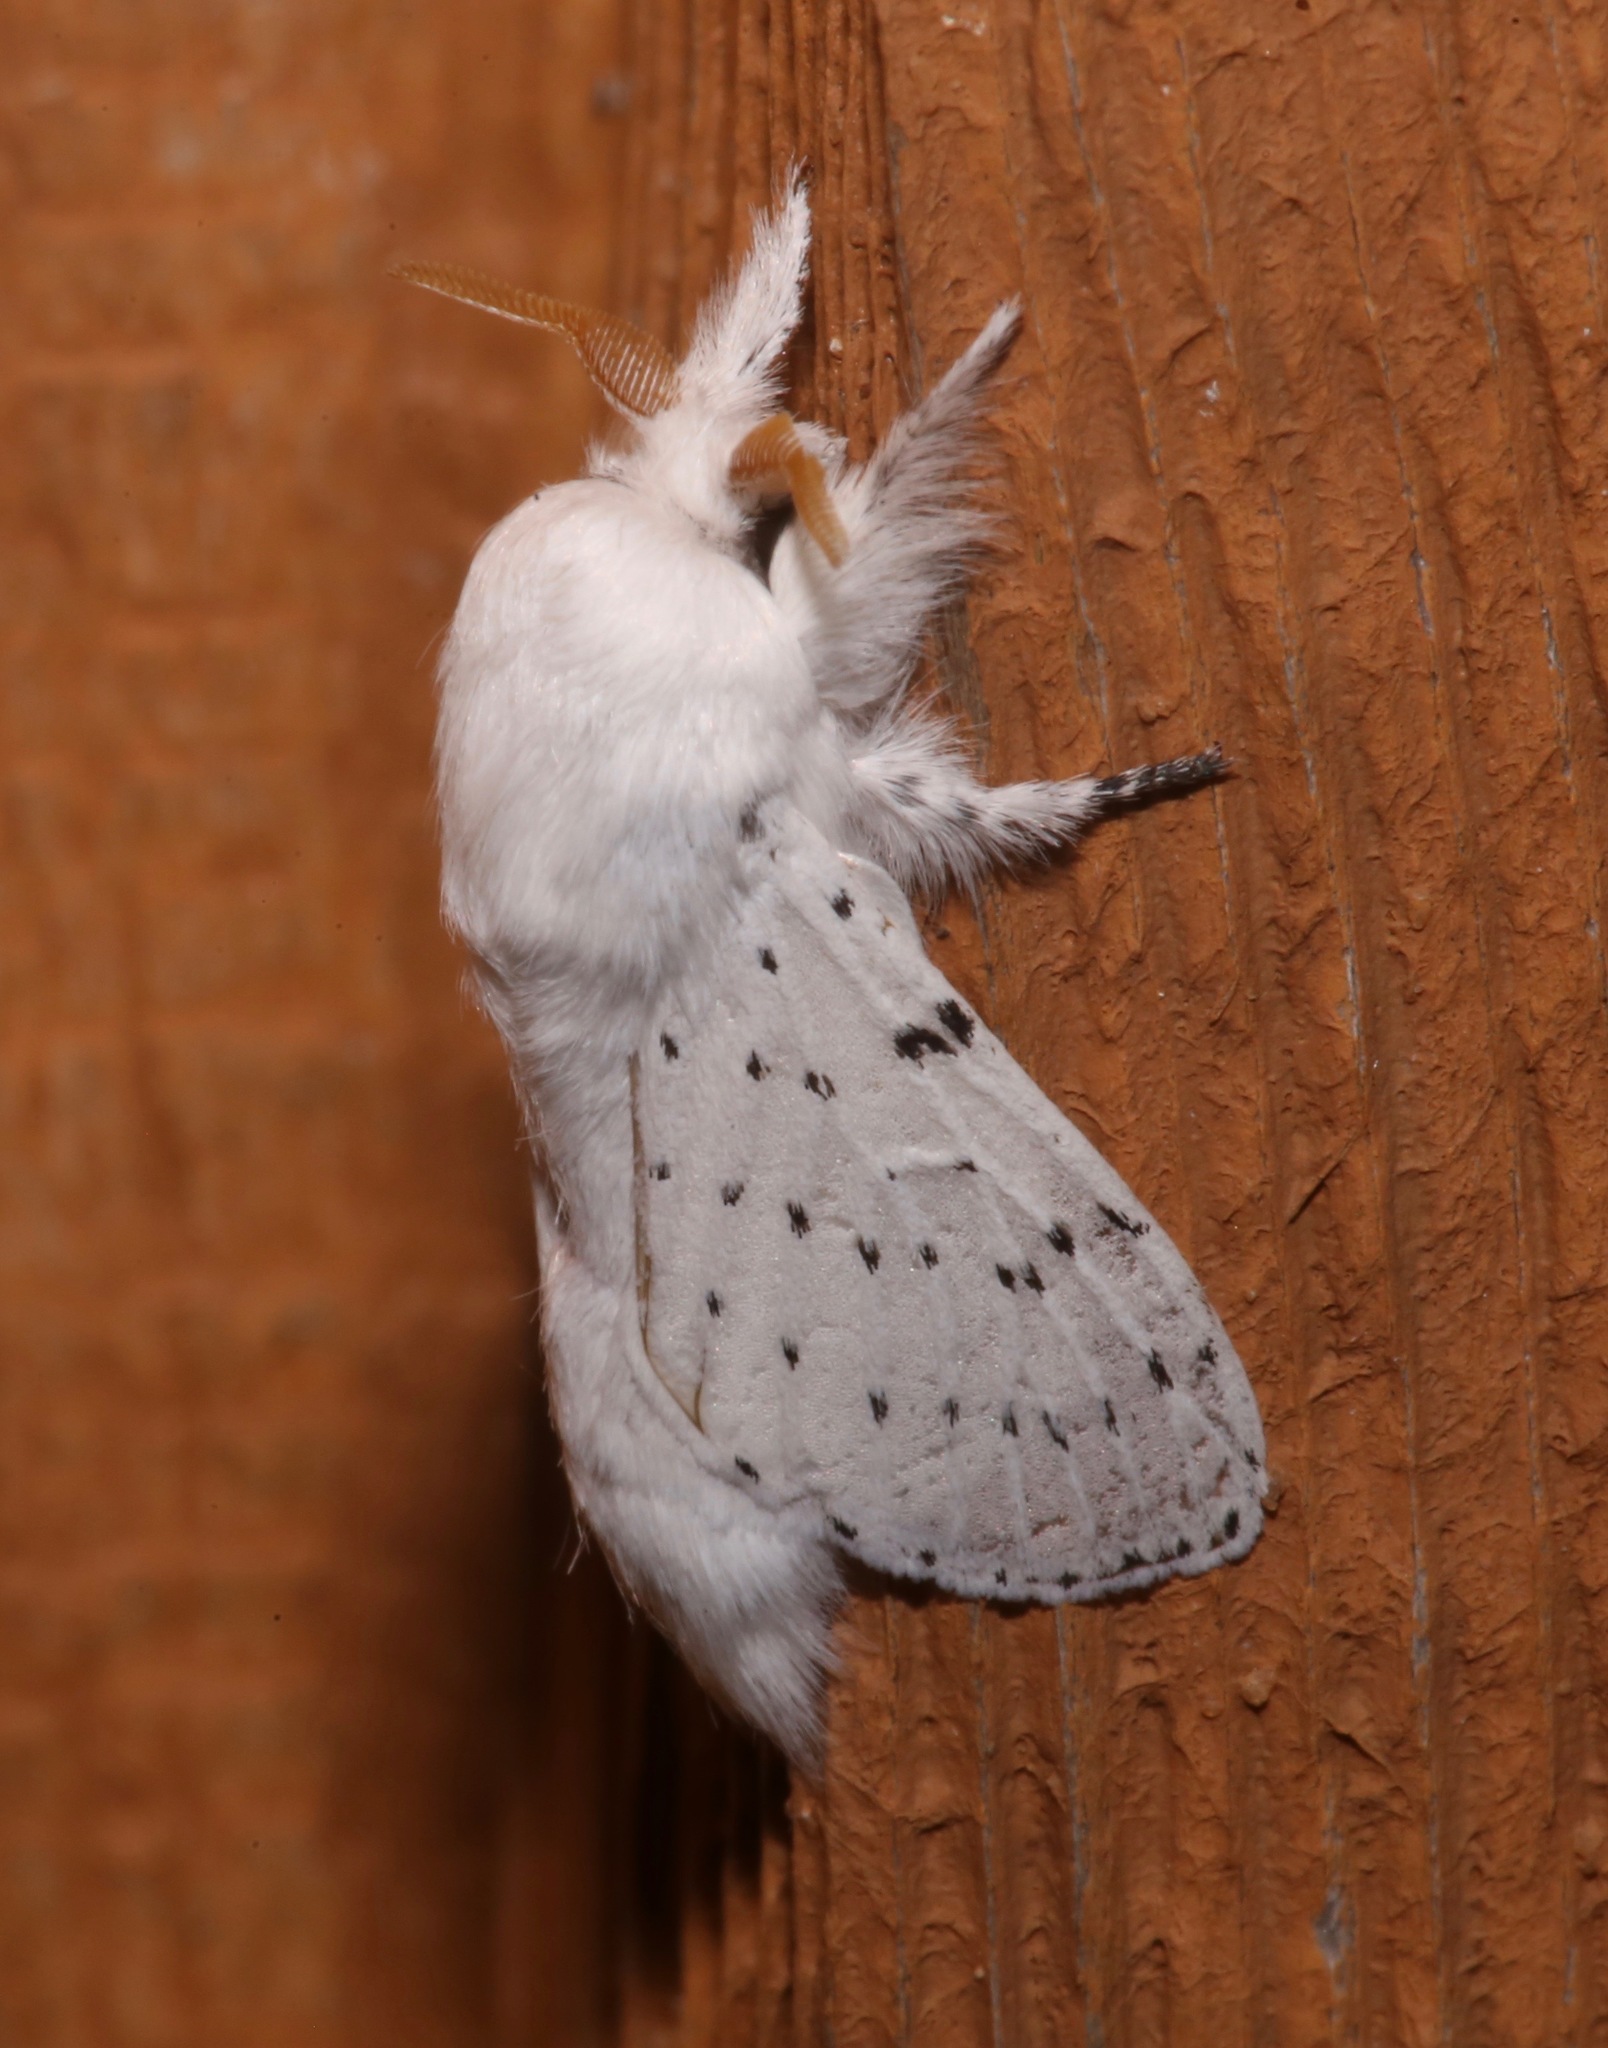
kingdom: Animalia
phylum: Arthropoda
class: Insecta
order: Lepidoptera
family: Lasiocampidae
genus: Artace
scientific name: Artace cribrarius
